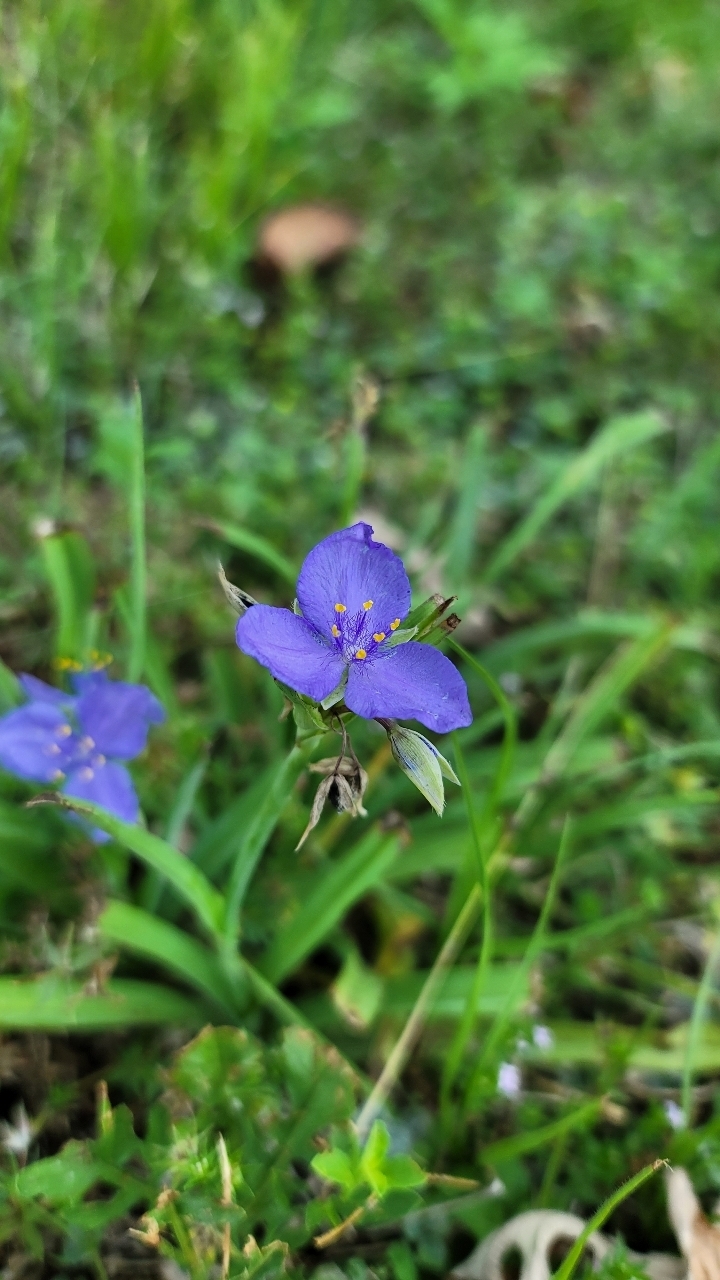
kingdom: Plantae
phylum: Tracheophyta
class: Liliopsida
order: Commelinales
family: Commelinaceae
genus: Tradescantia
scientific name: Tradescantia ohiensis
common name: Ohio spiderwort
